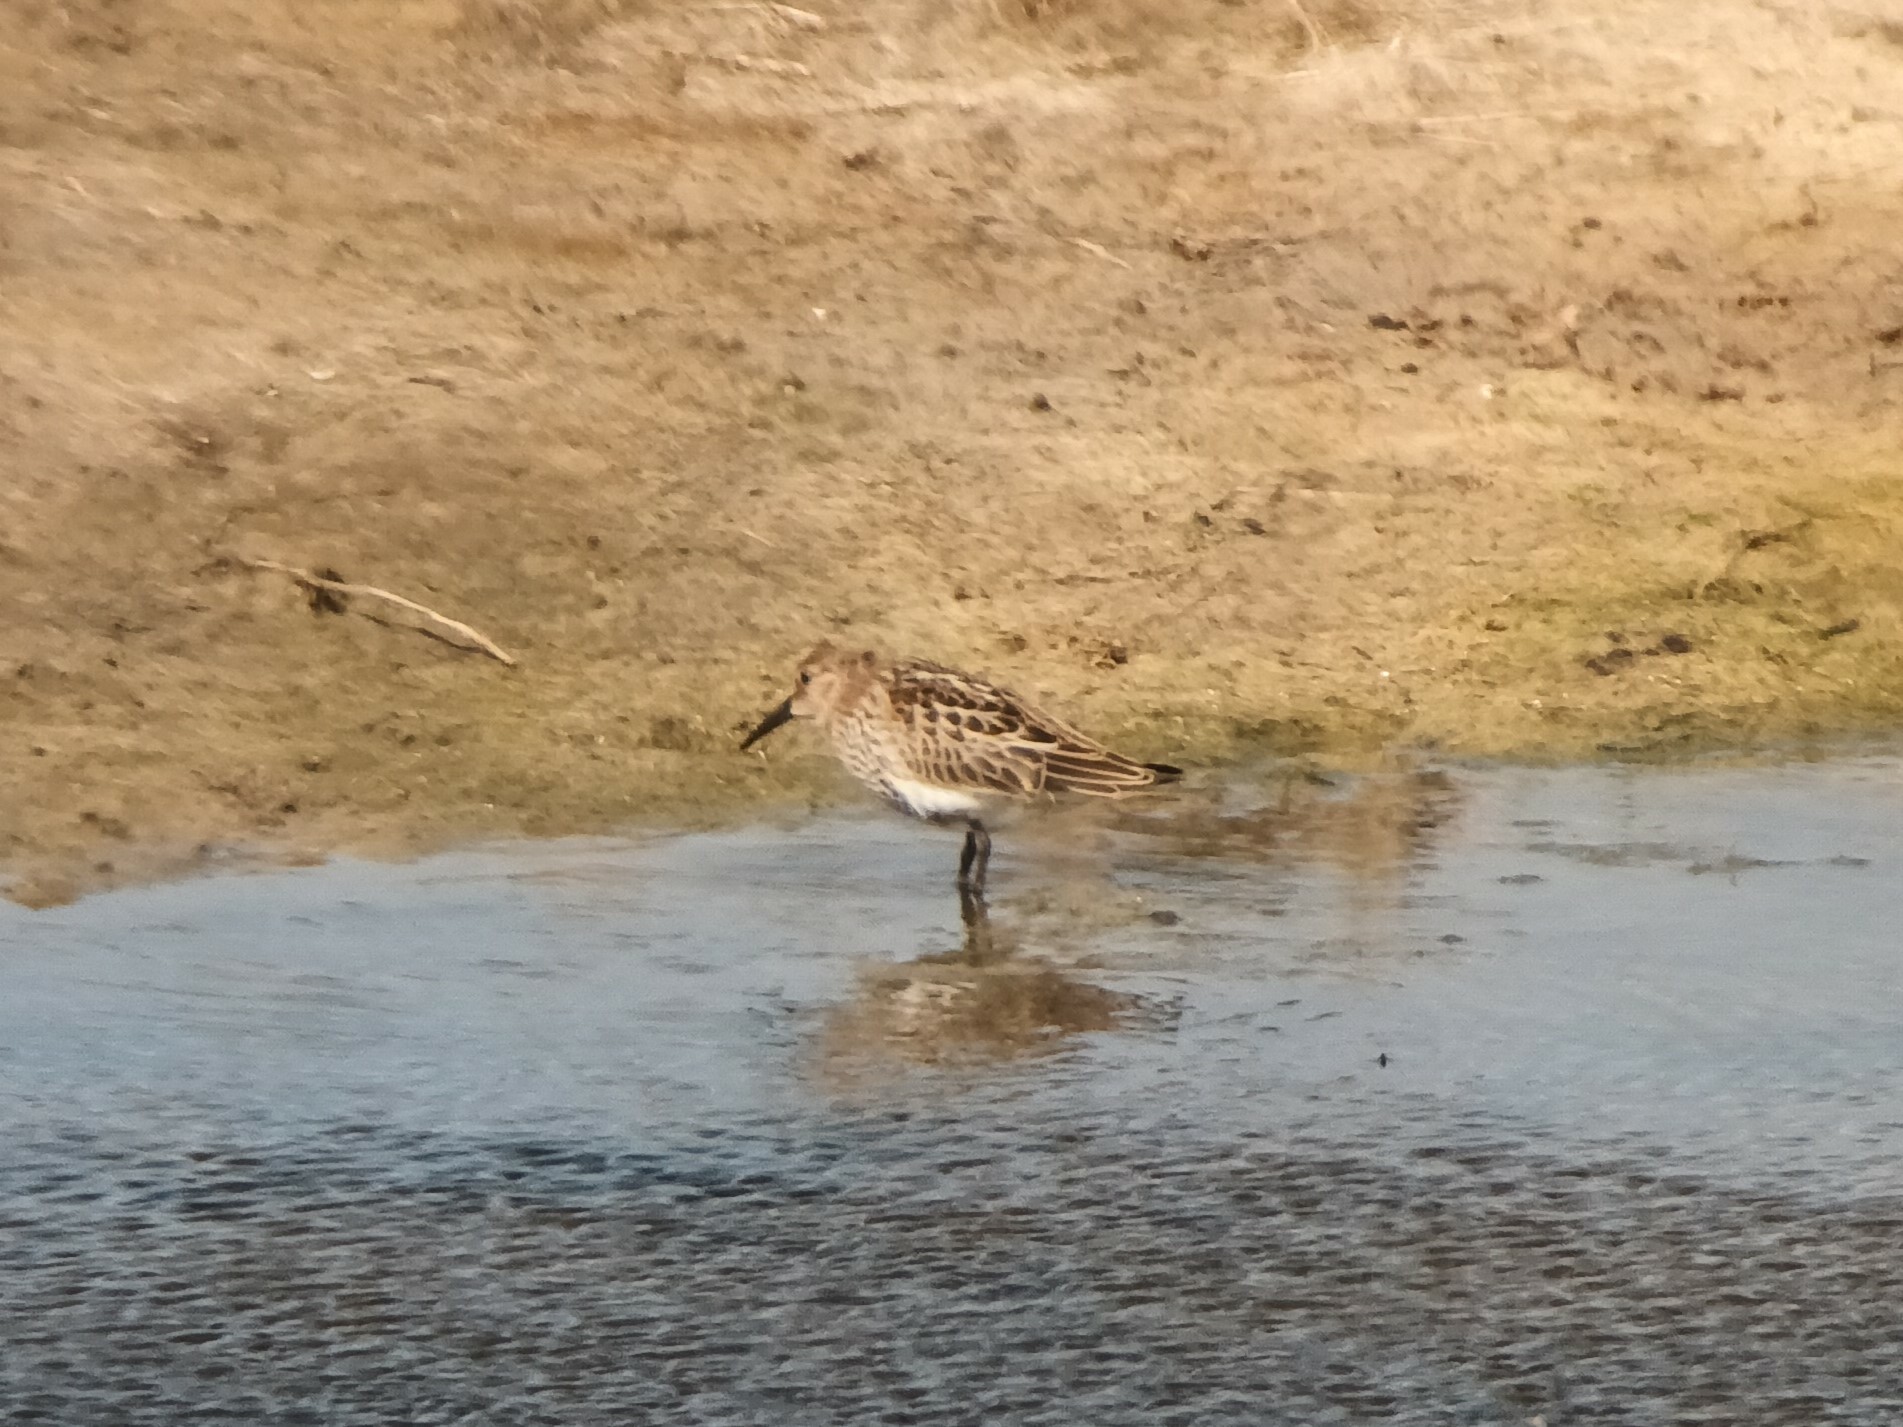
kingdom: Animalia
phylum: Chordata
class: Aves
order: Charadriiformes
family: Scolopacidae
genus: Calidris
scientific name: Calidris alpina
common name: Dunlin
